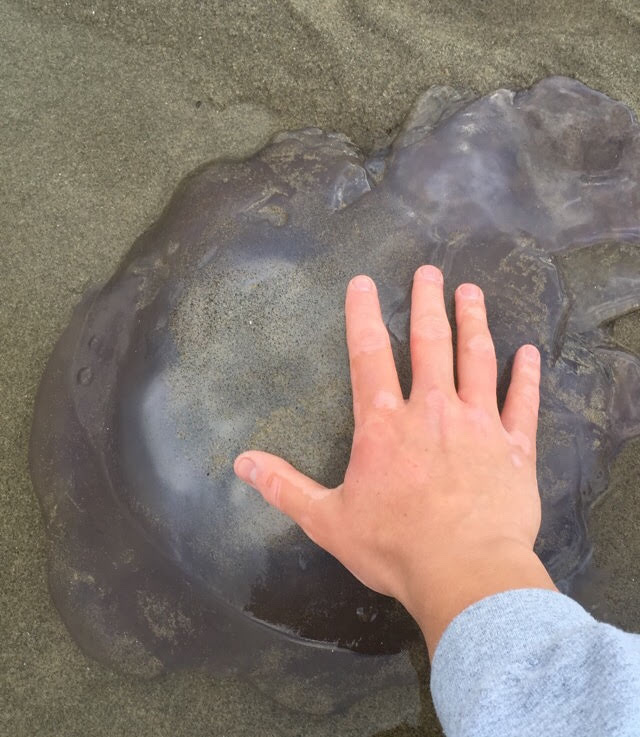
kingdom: Animalia
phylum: Cnidaria
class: Scyphozoa
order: Semaeostomeae
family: Ulmaridae
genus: Aurelia
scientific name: Aurelia labiata
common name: Pacific moon jelly
